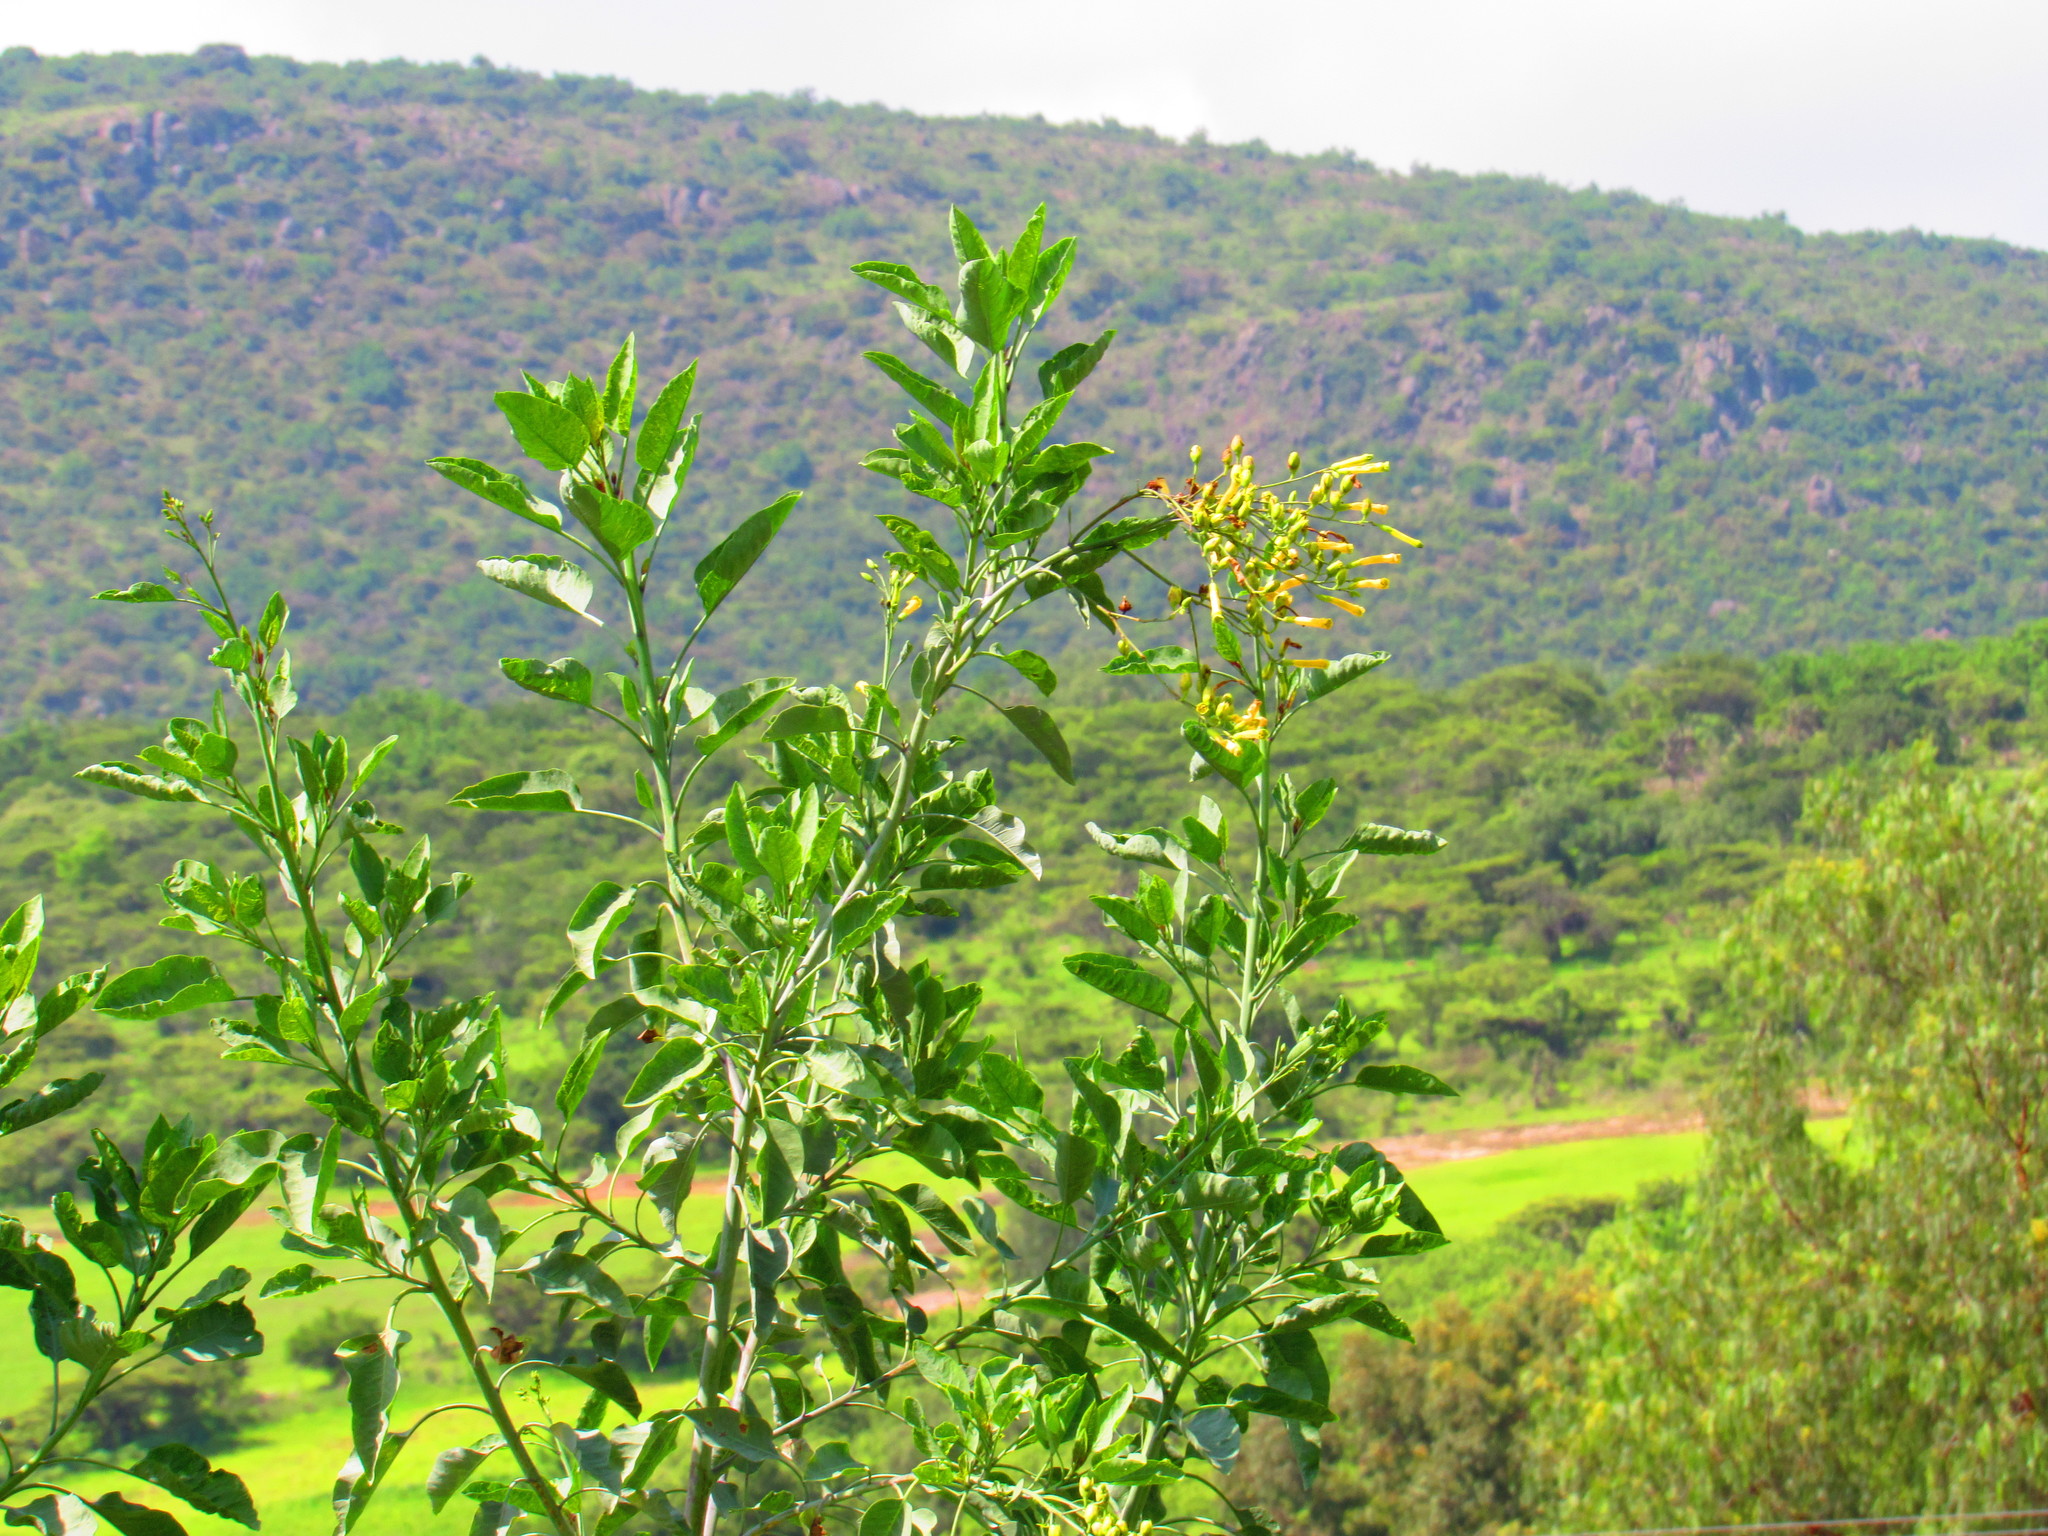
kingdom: Plantae
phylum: Tracheophyta
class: Magnoliopsida
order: Solanales
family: Solanaceae
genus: Nicotiana
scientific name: Nicotiana glauca
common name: Tree tobacco
